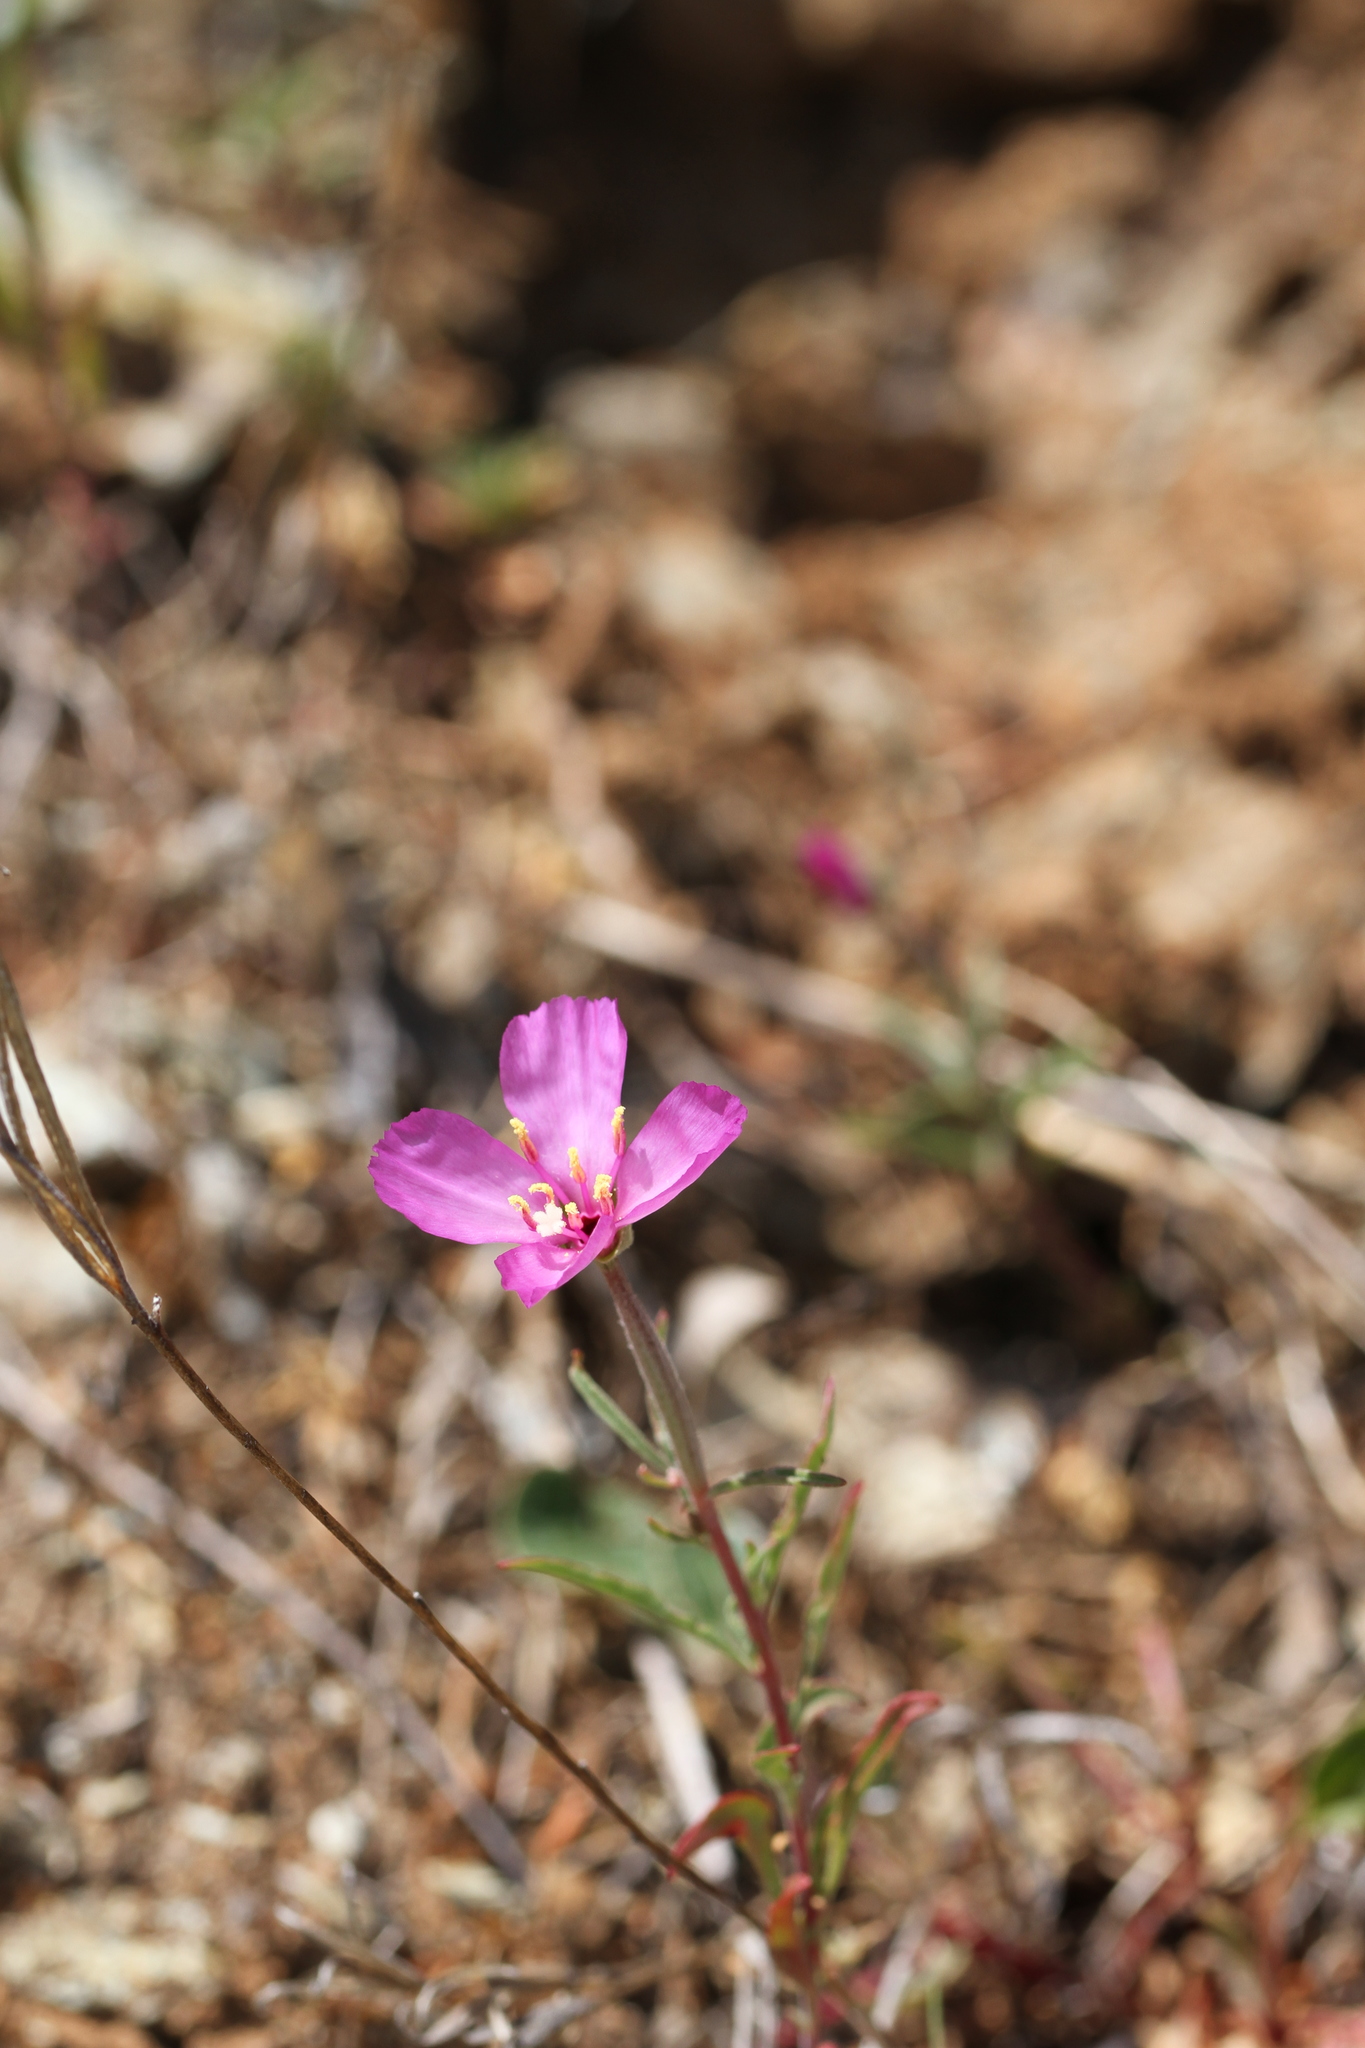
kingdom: Plantae
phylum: Tracheophyta
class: Magnoliopsida
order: Myrtales
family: Onagraceae
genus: Clarkia
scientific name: Clarkia gracilis
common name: Graceful clarkia
